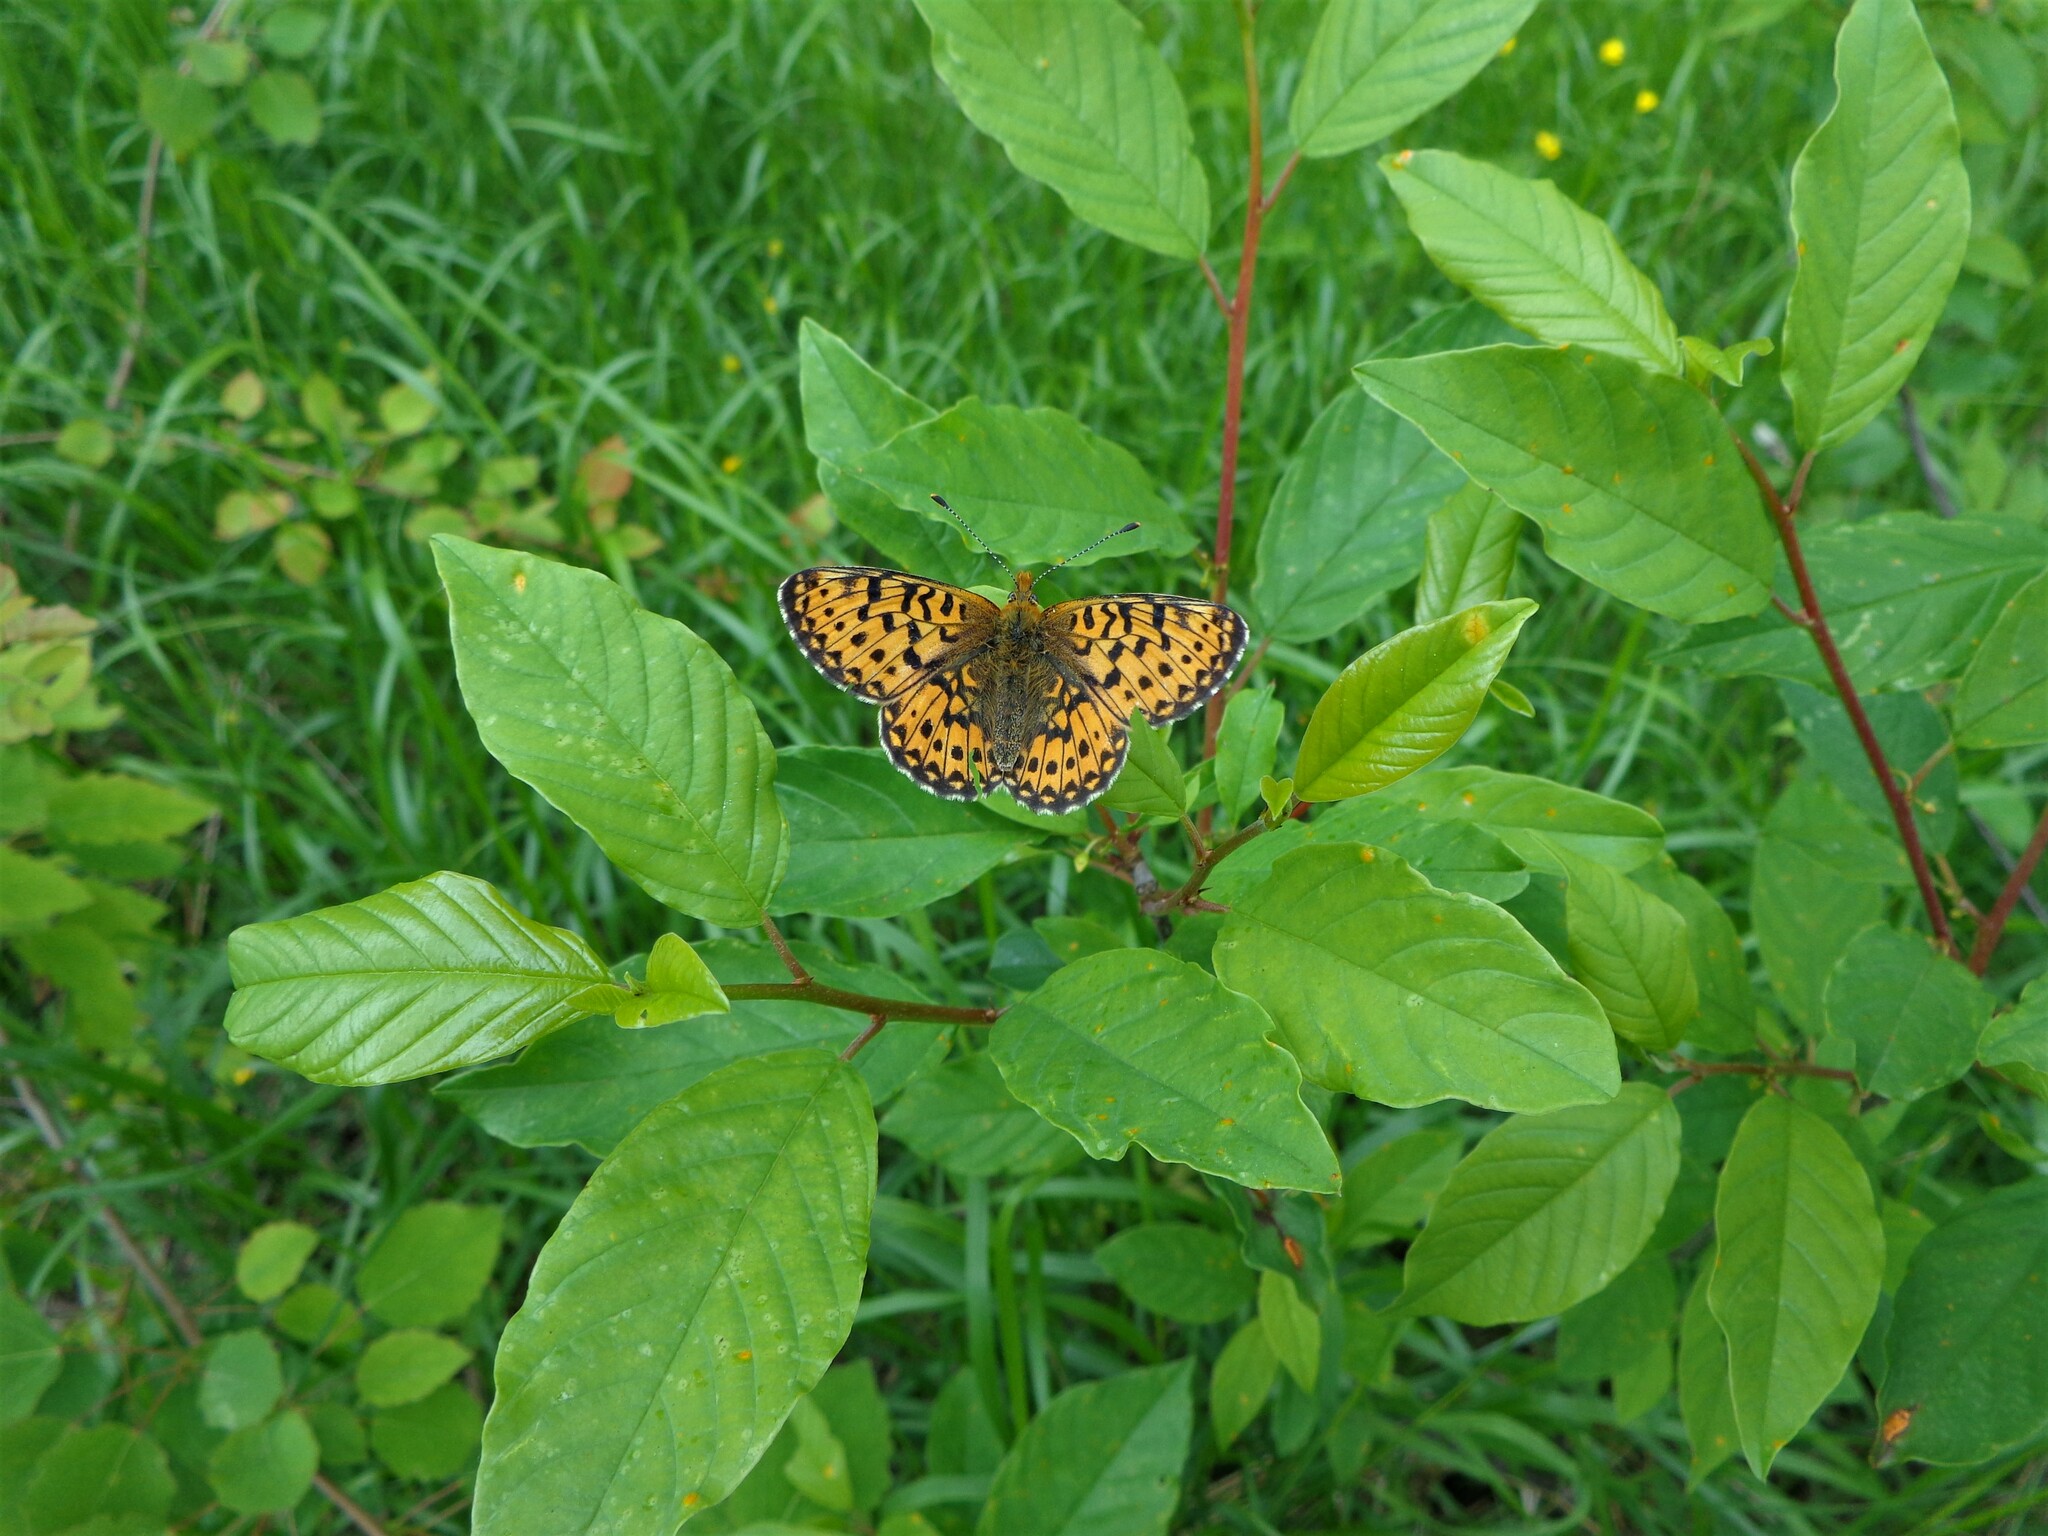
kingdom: Animalia
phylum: Arthropoda
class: Insecta
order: Lepidoptera
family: Nymphalidae
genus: Clossiana
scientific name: Clossiana euphrosyne
